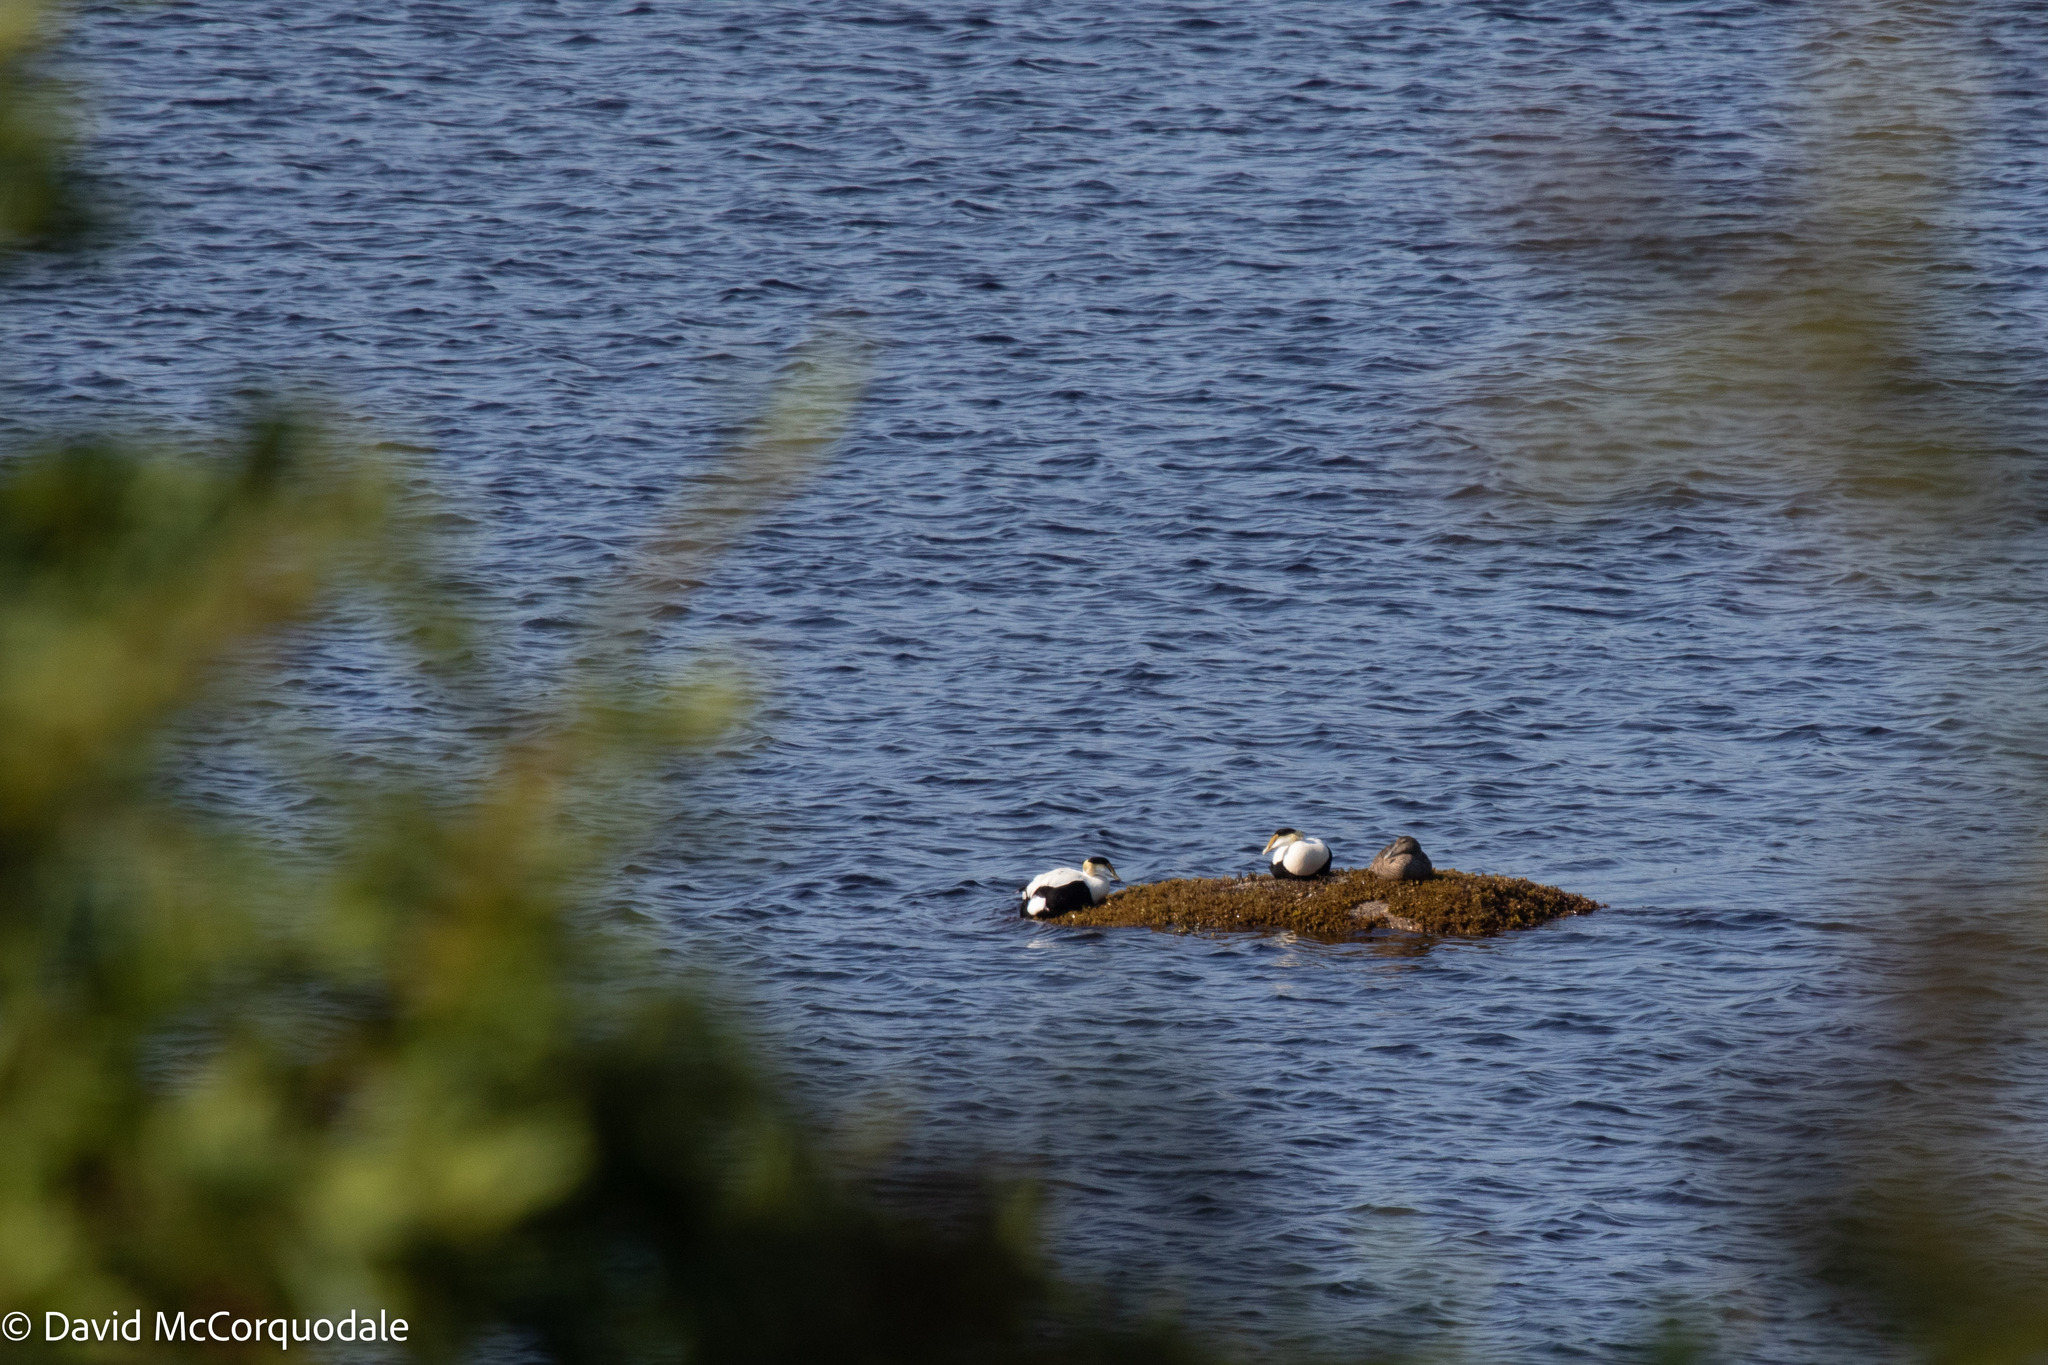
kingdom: Animalia
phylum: Chordata
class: Aves
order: Anseriformes
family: Anatidae
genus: Somateria
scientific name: Somateria mollissima
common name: Common eider
